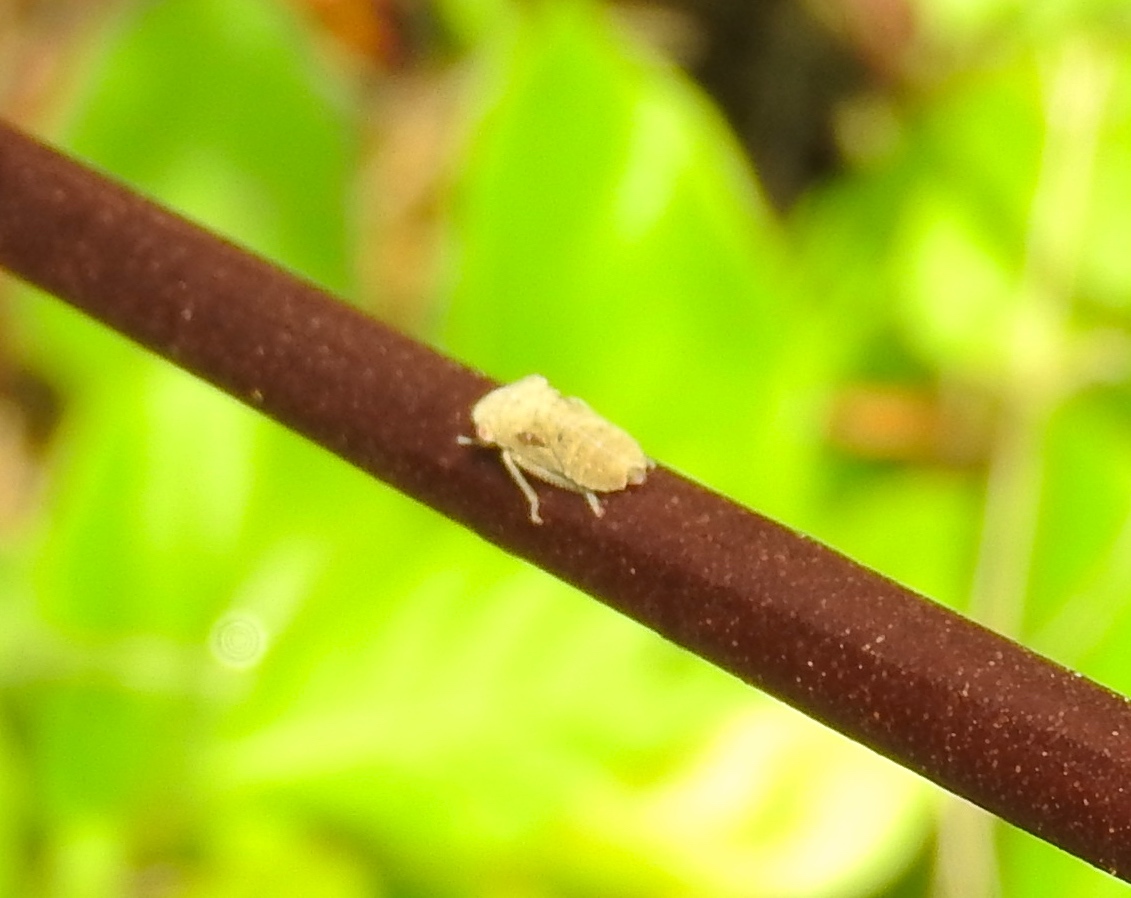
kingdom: Animalia
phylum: Arthropoda
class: Insecta
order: Hemiptera
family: Cicadellidae
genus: Homalodisca
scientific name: Homalodisca
